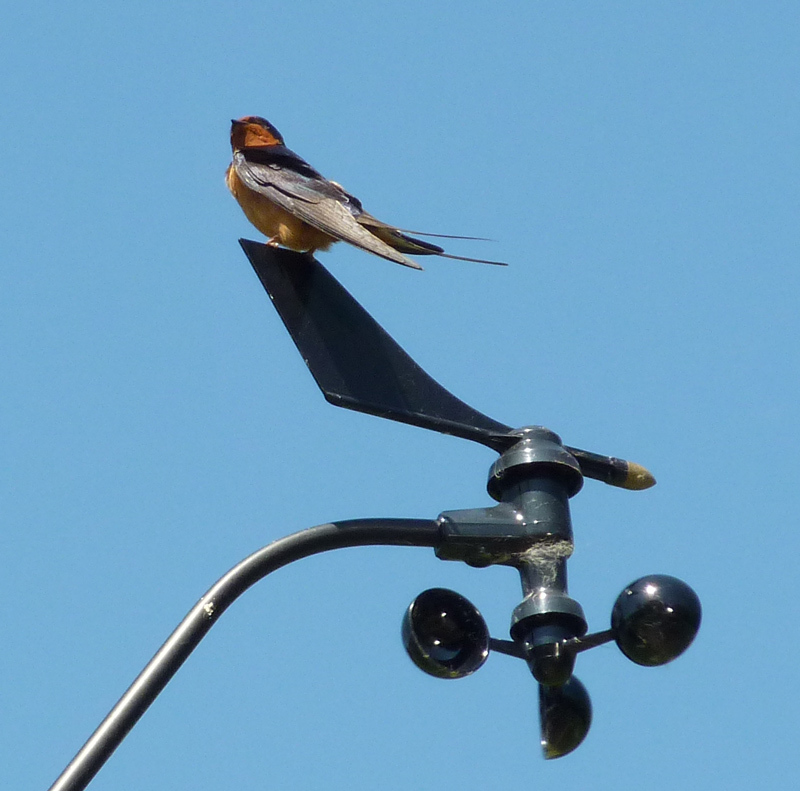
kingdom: Animalia
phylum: Chordata
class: Aves
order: Passeriformes
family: Hirundinidae
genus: Hirundo
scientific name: Hirundo rustica
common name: Barn swallow
